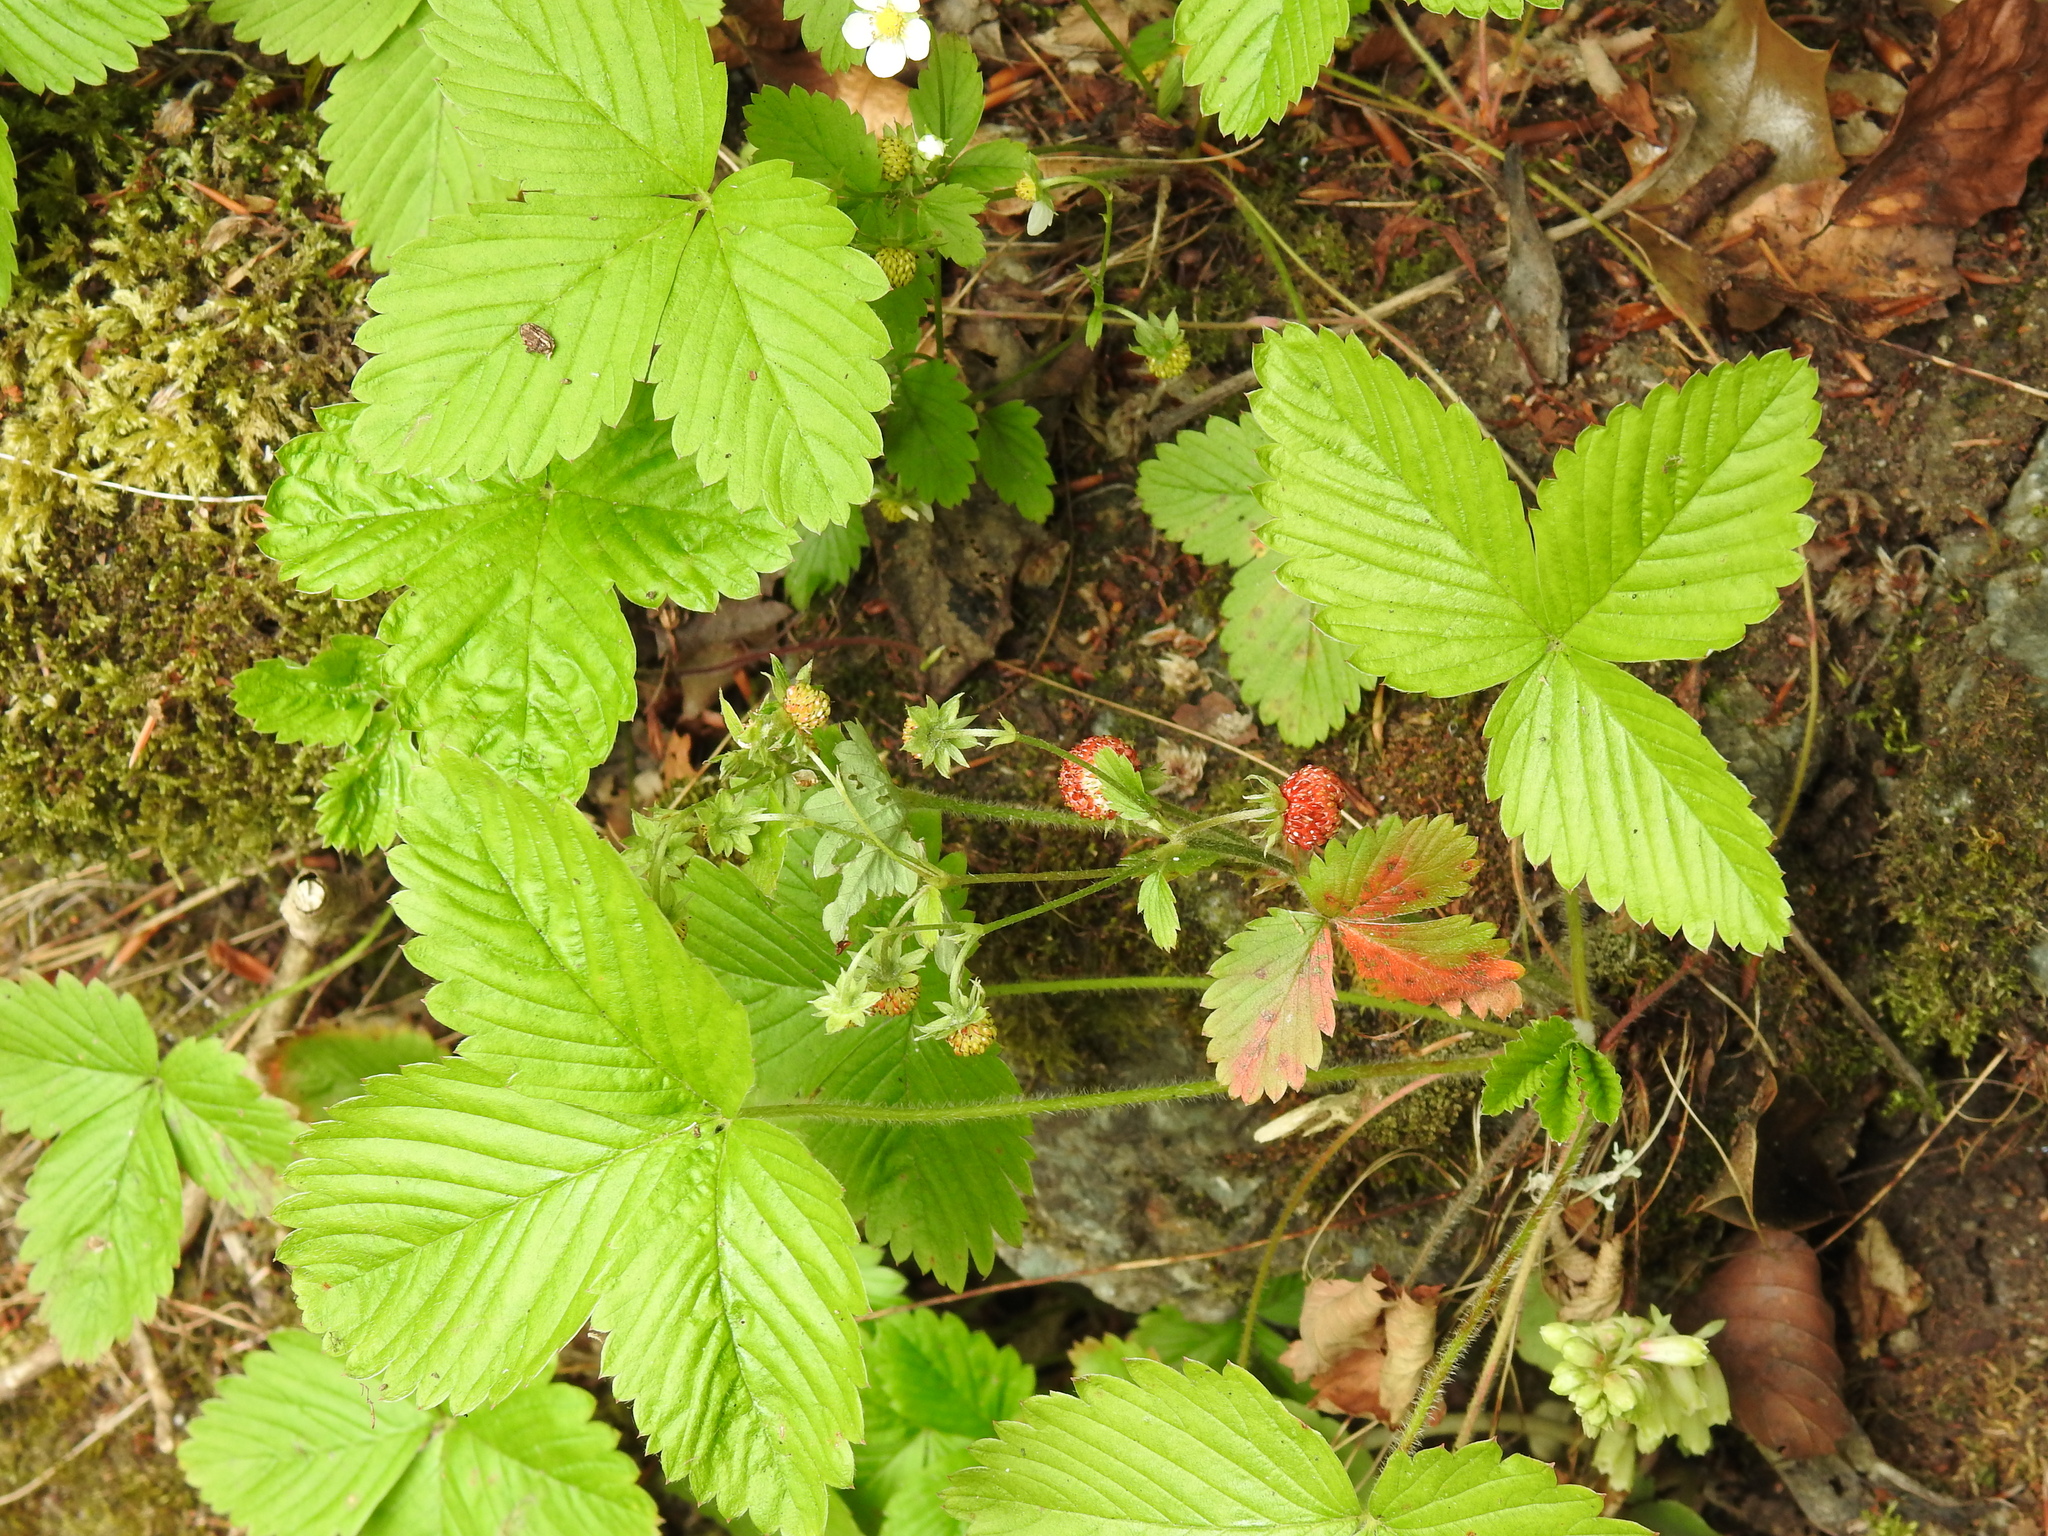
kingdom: Plantae
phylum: Tracheophyta
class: Magnoliopsida
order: Rosales
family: Rosaceae
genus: Fragaria
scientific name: Fragaria vesca
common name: Wild strawberry
